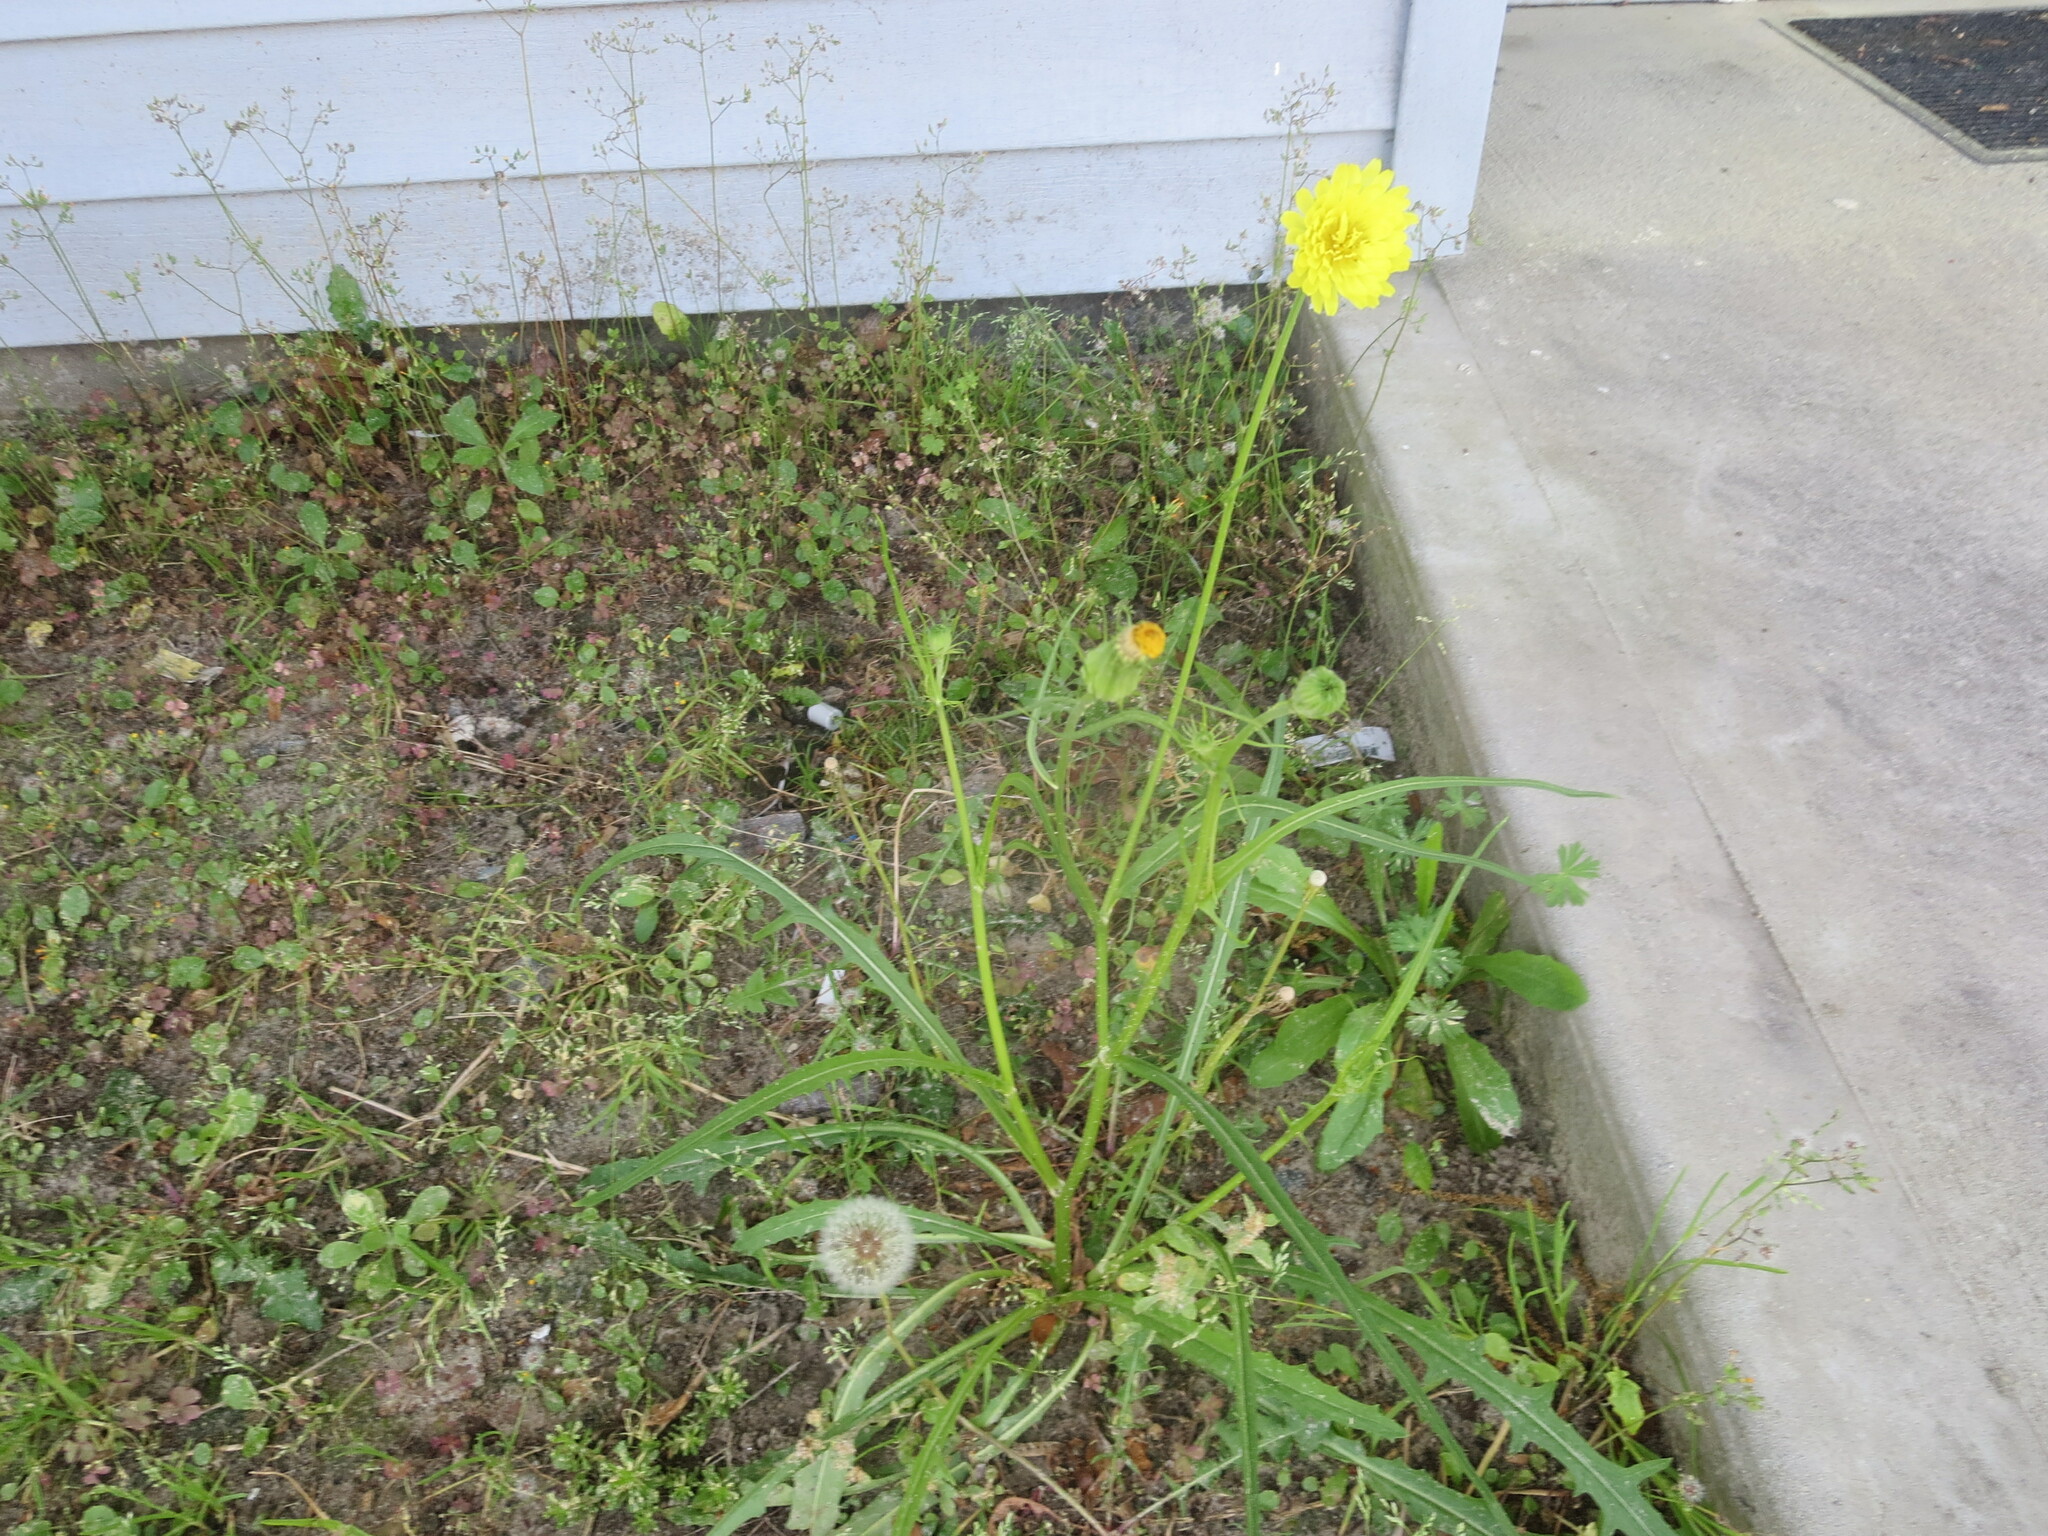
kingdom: Plantae
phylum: Tracheophyta
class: Magnoliopsida
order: Asterales
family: Asteraceae
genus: Pyrrhopappus
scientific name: Pyrrhopappus carolinianus
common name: Carolina desert-chicory
